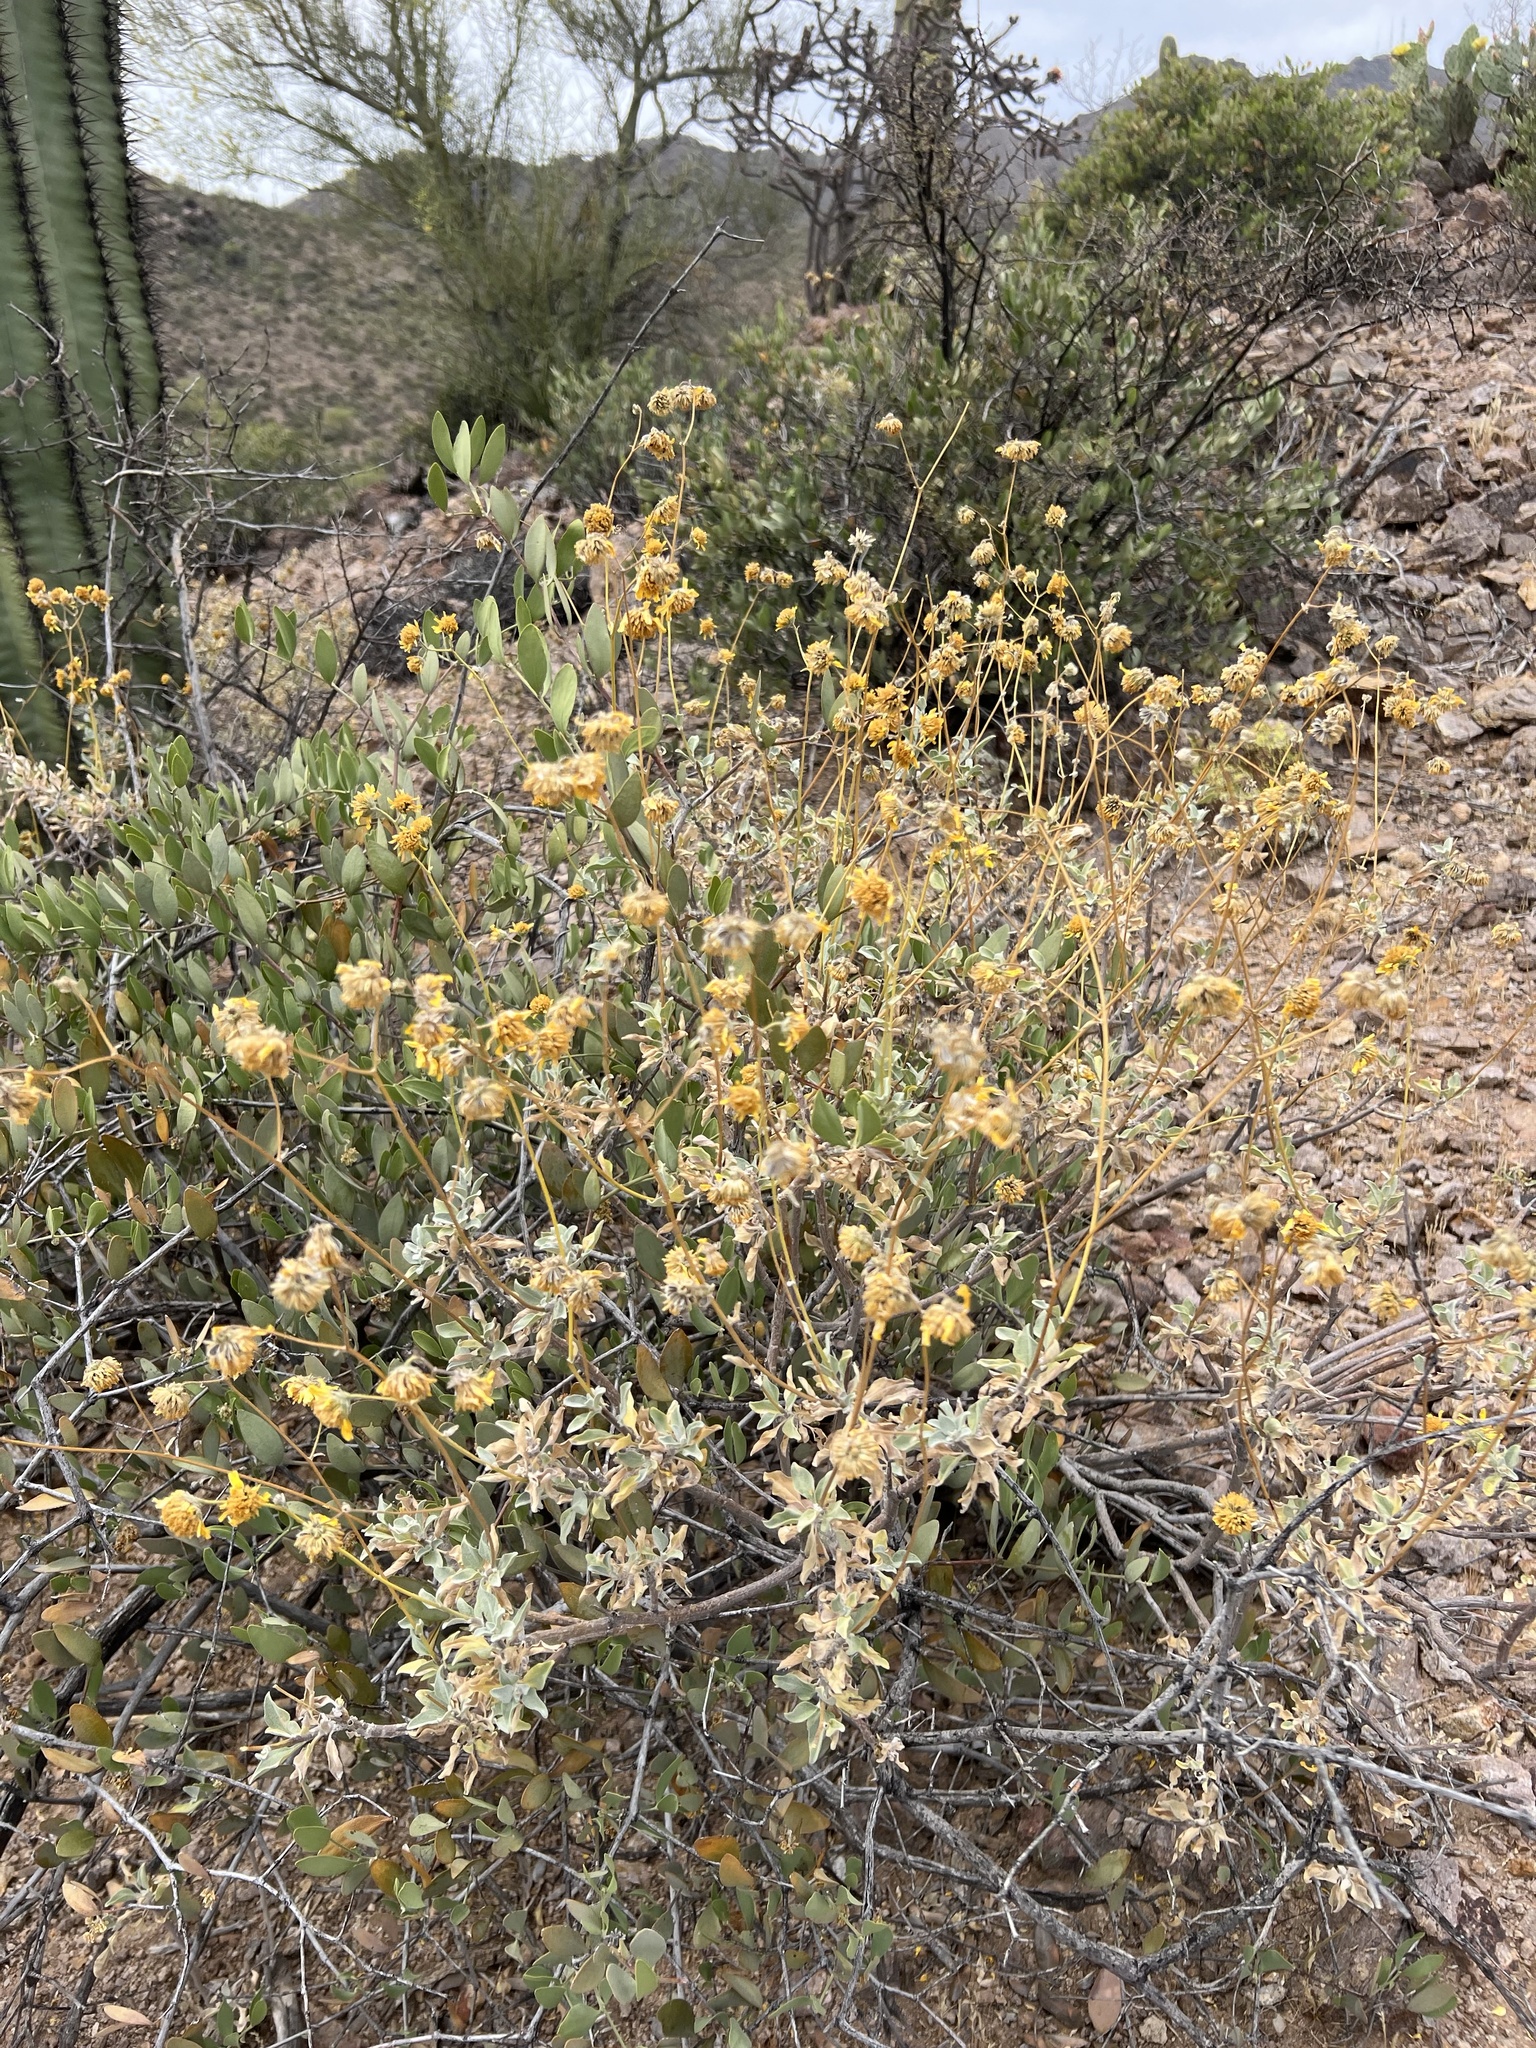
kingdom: Plantae
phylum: Tracheophyta
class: Magnoliopsida
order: Asterales
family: Asteraceae
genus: Encelia
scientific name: Encelia farinosa
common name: Brittlebush
